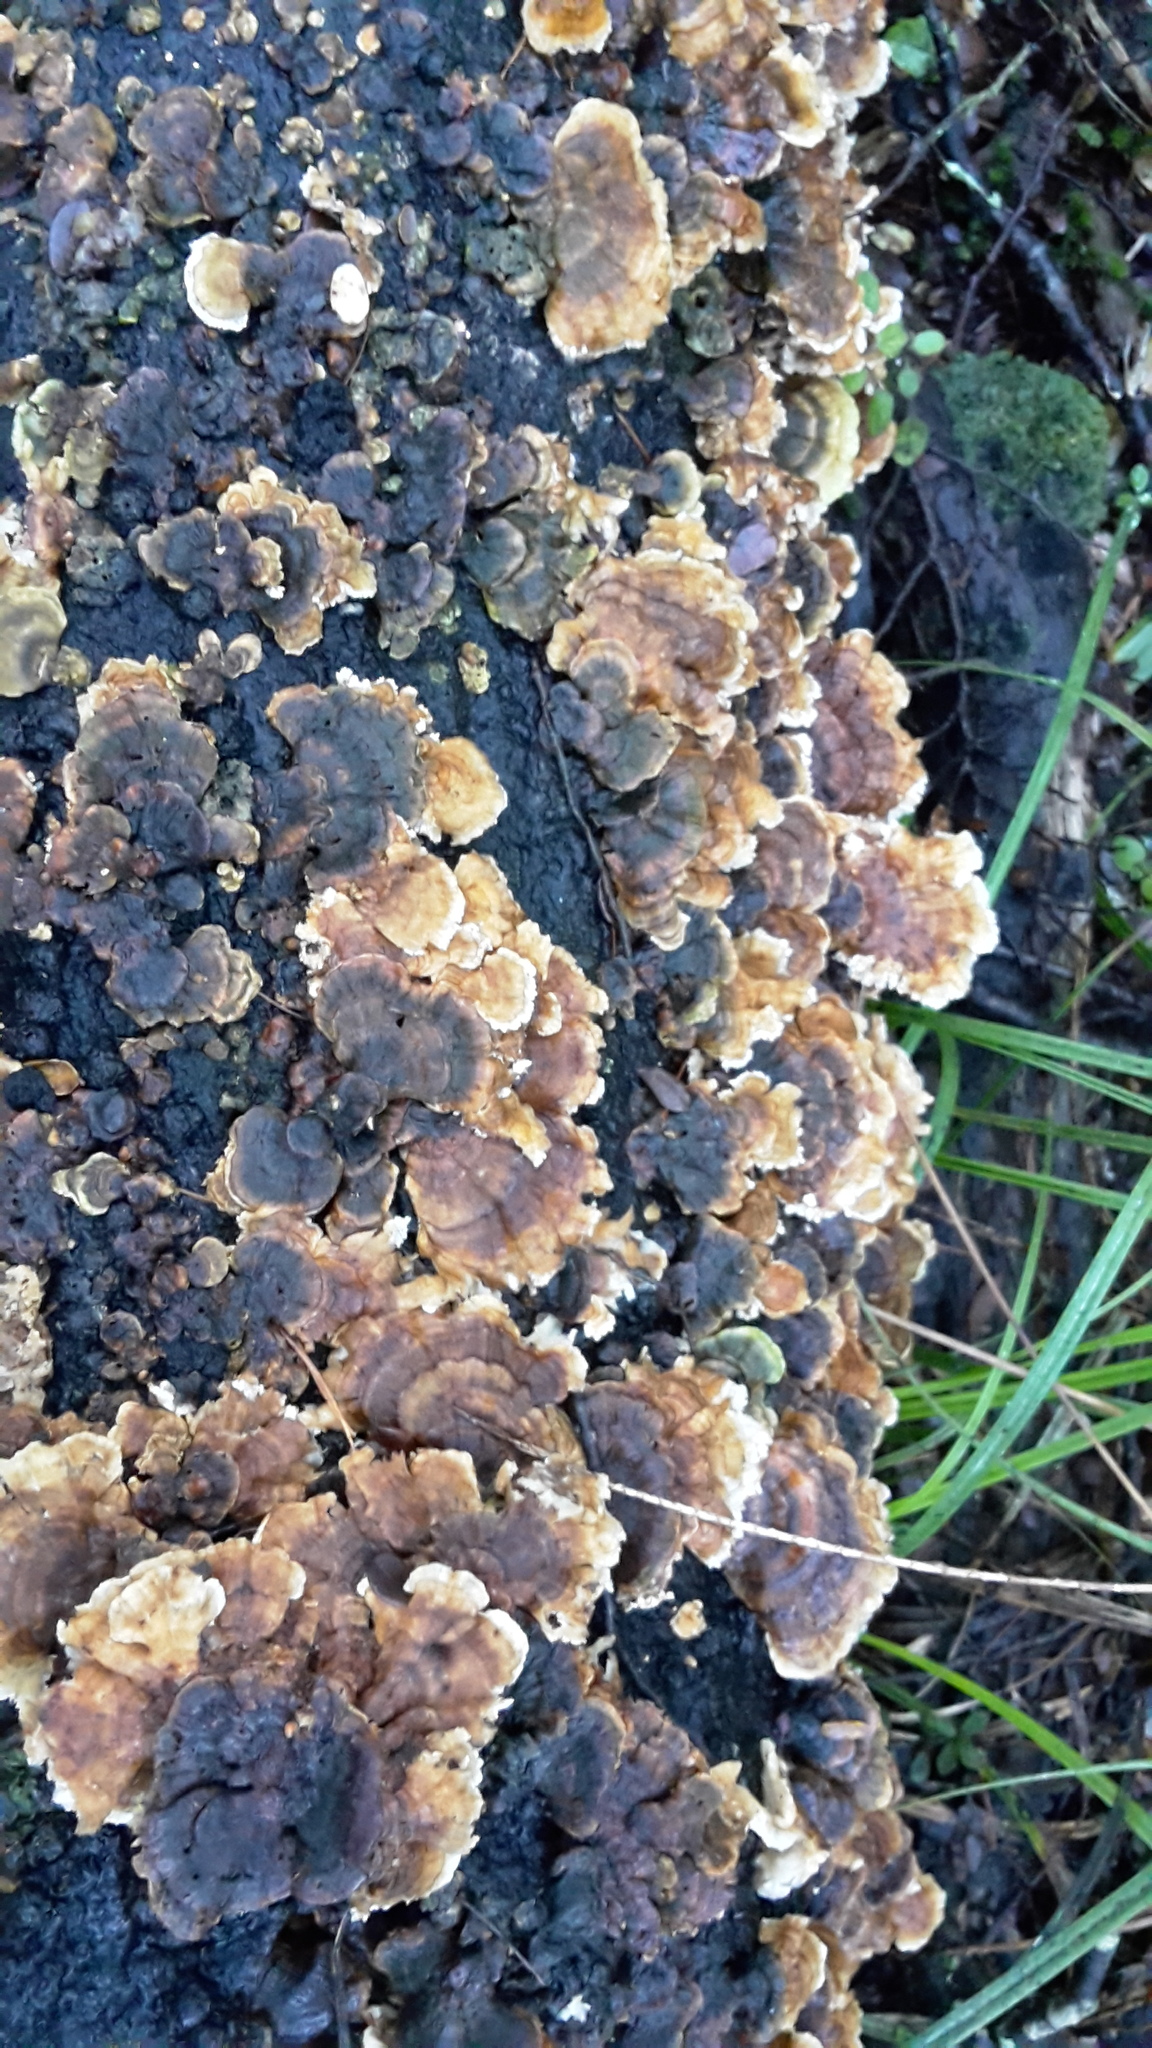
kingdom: Fungi
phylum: Basidiomycota
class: Agaricomycetes
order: Polyporales
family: Polyporaceae
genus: Trametes
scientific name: Trametes versicolor
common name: Turkeytail
